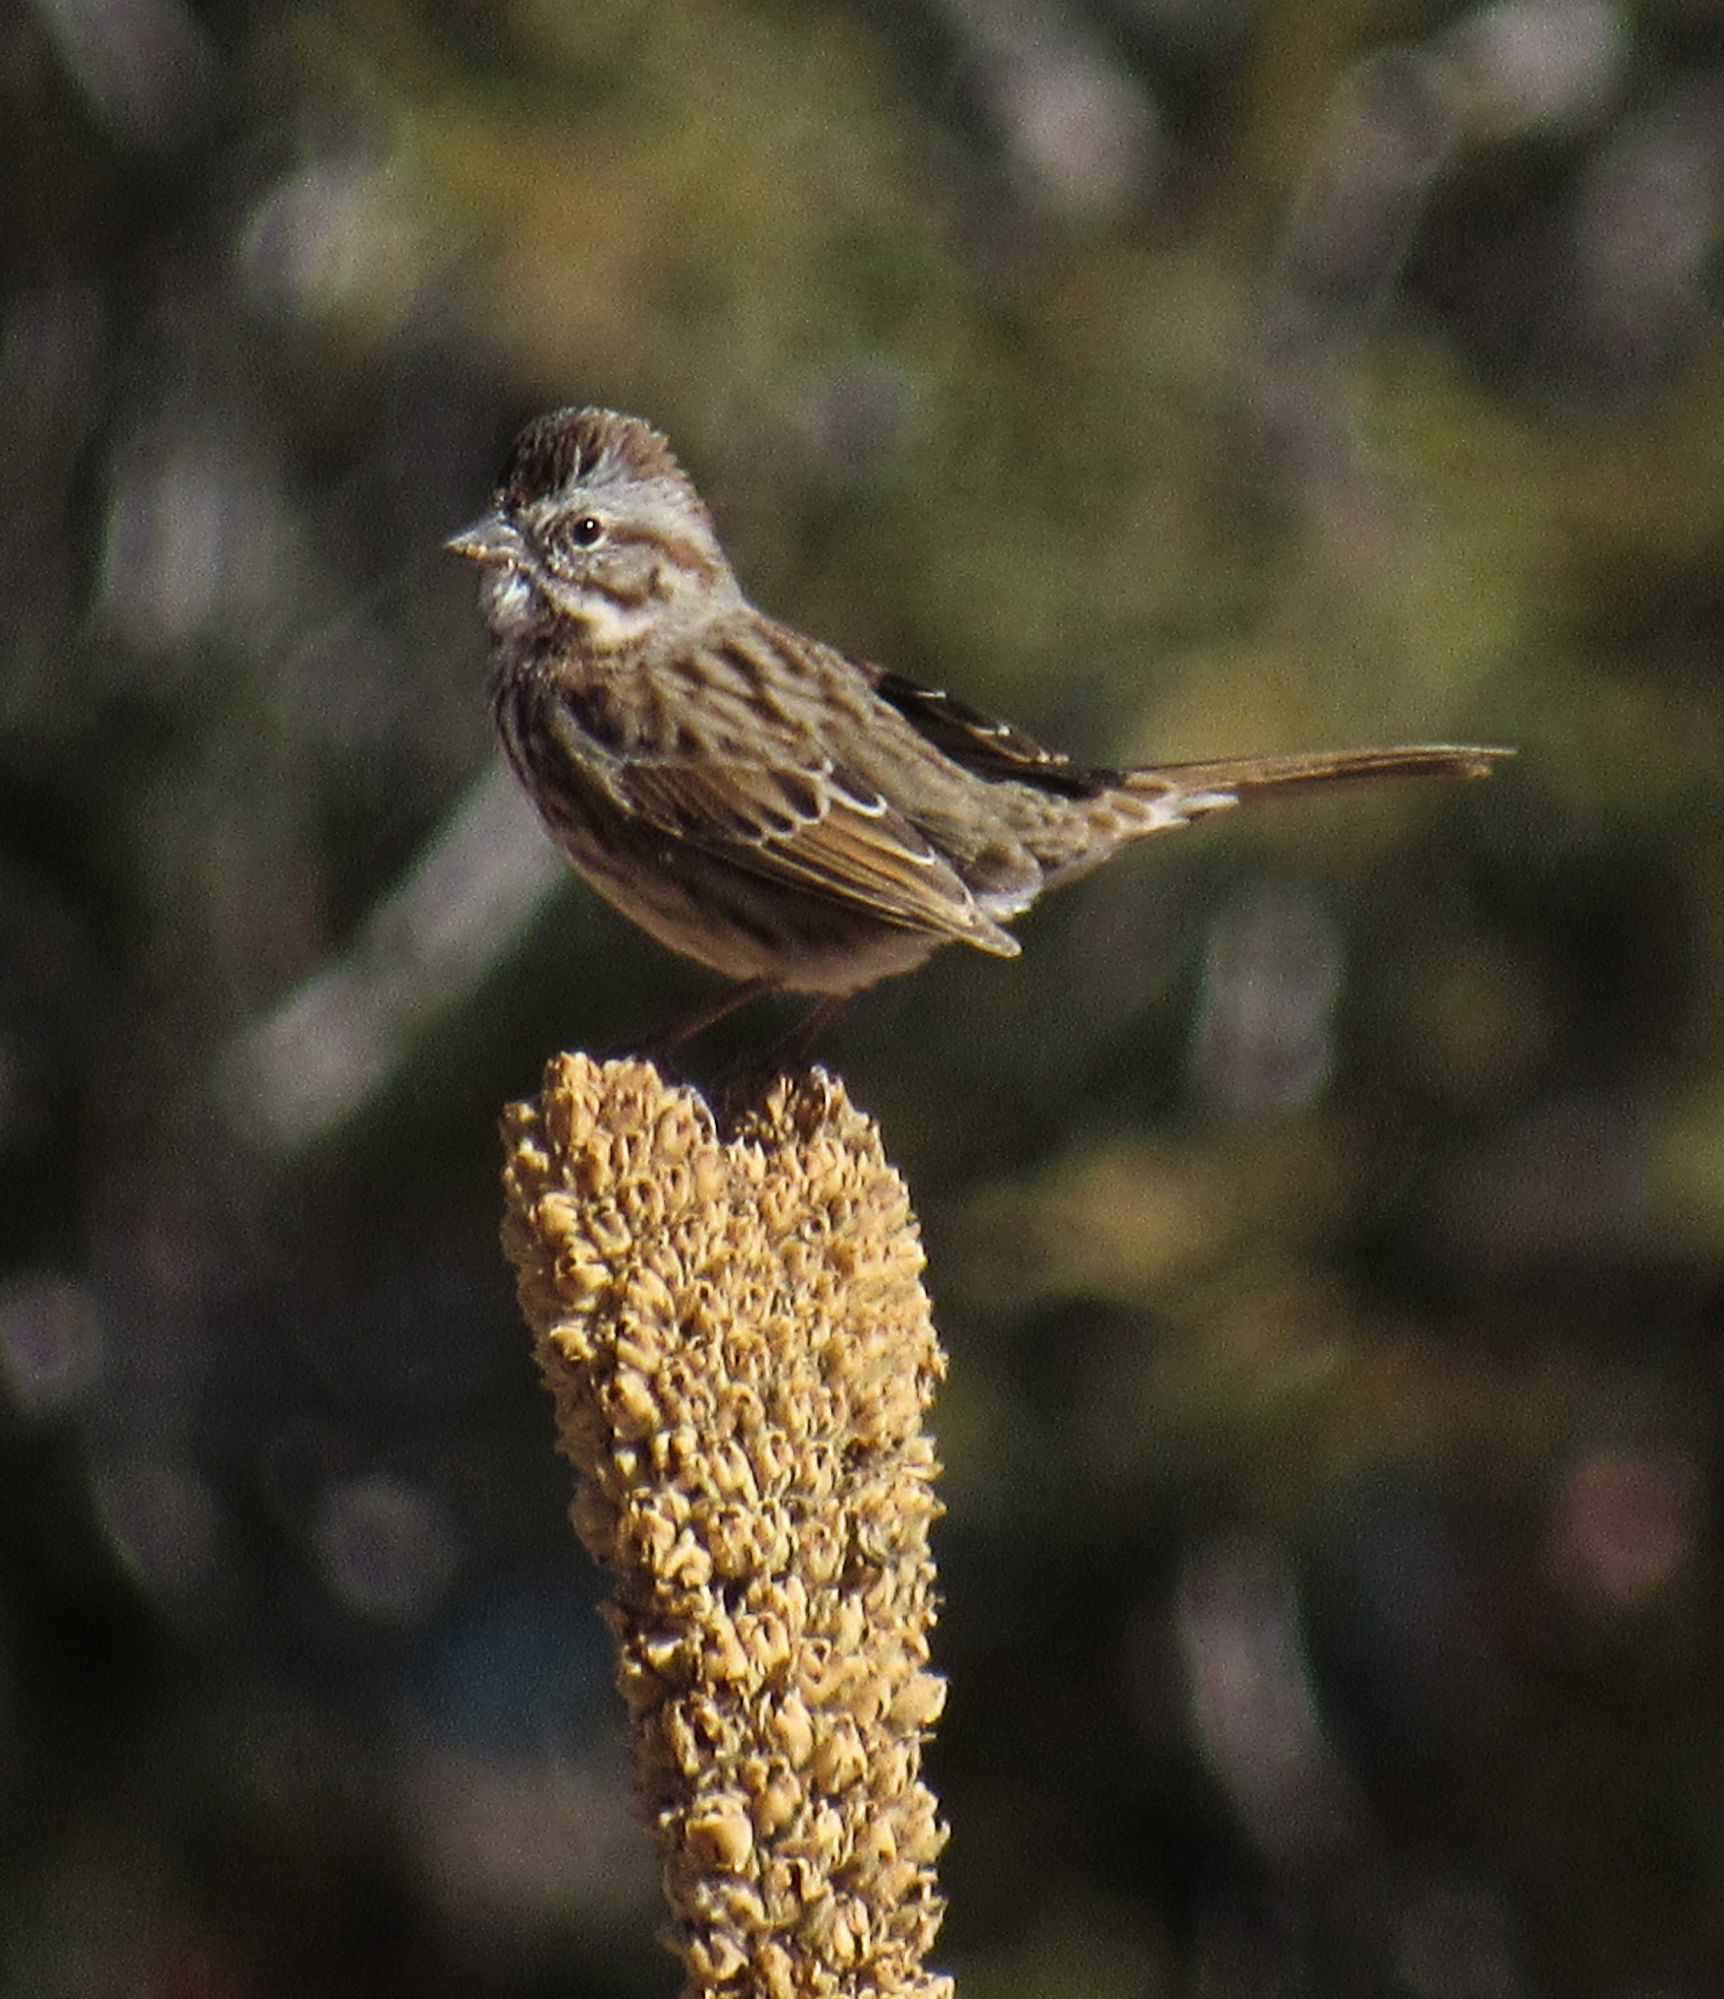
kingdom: Animalia
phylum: Chordata
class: Aves
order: Passeriformes
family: Passerellidae
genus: Melospiza
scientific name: Melospiza melodia
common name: Song sparrow
